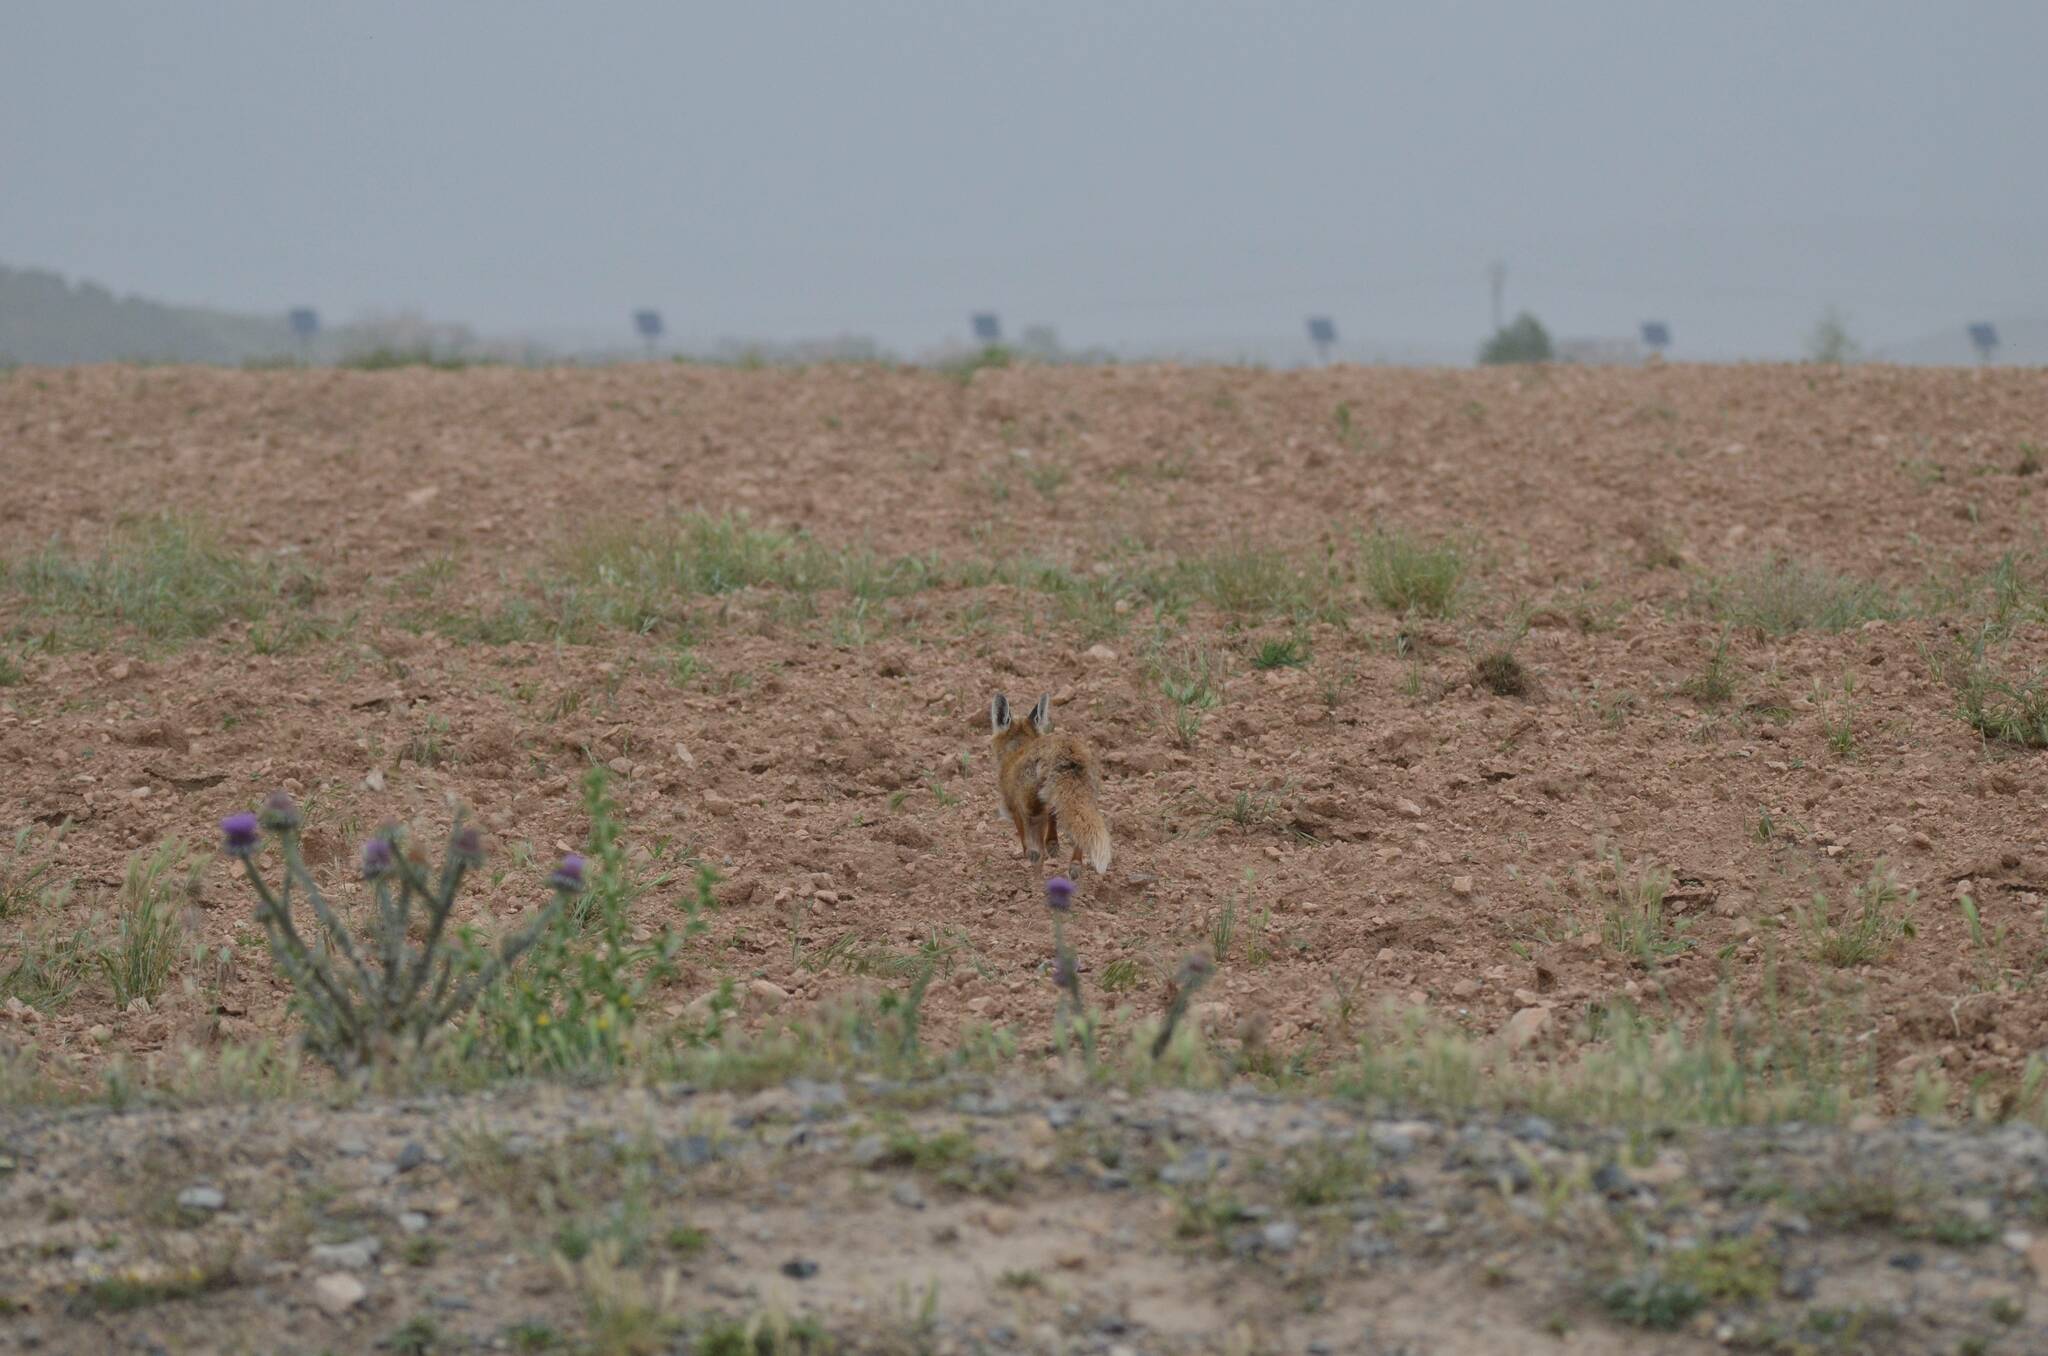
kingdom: Animalia
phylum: Chordata
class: Mammalia
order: Carnivora
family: Canidae
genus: Vulpes
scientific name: Vulpes vulpes
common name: Red fox
